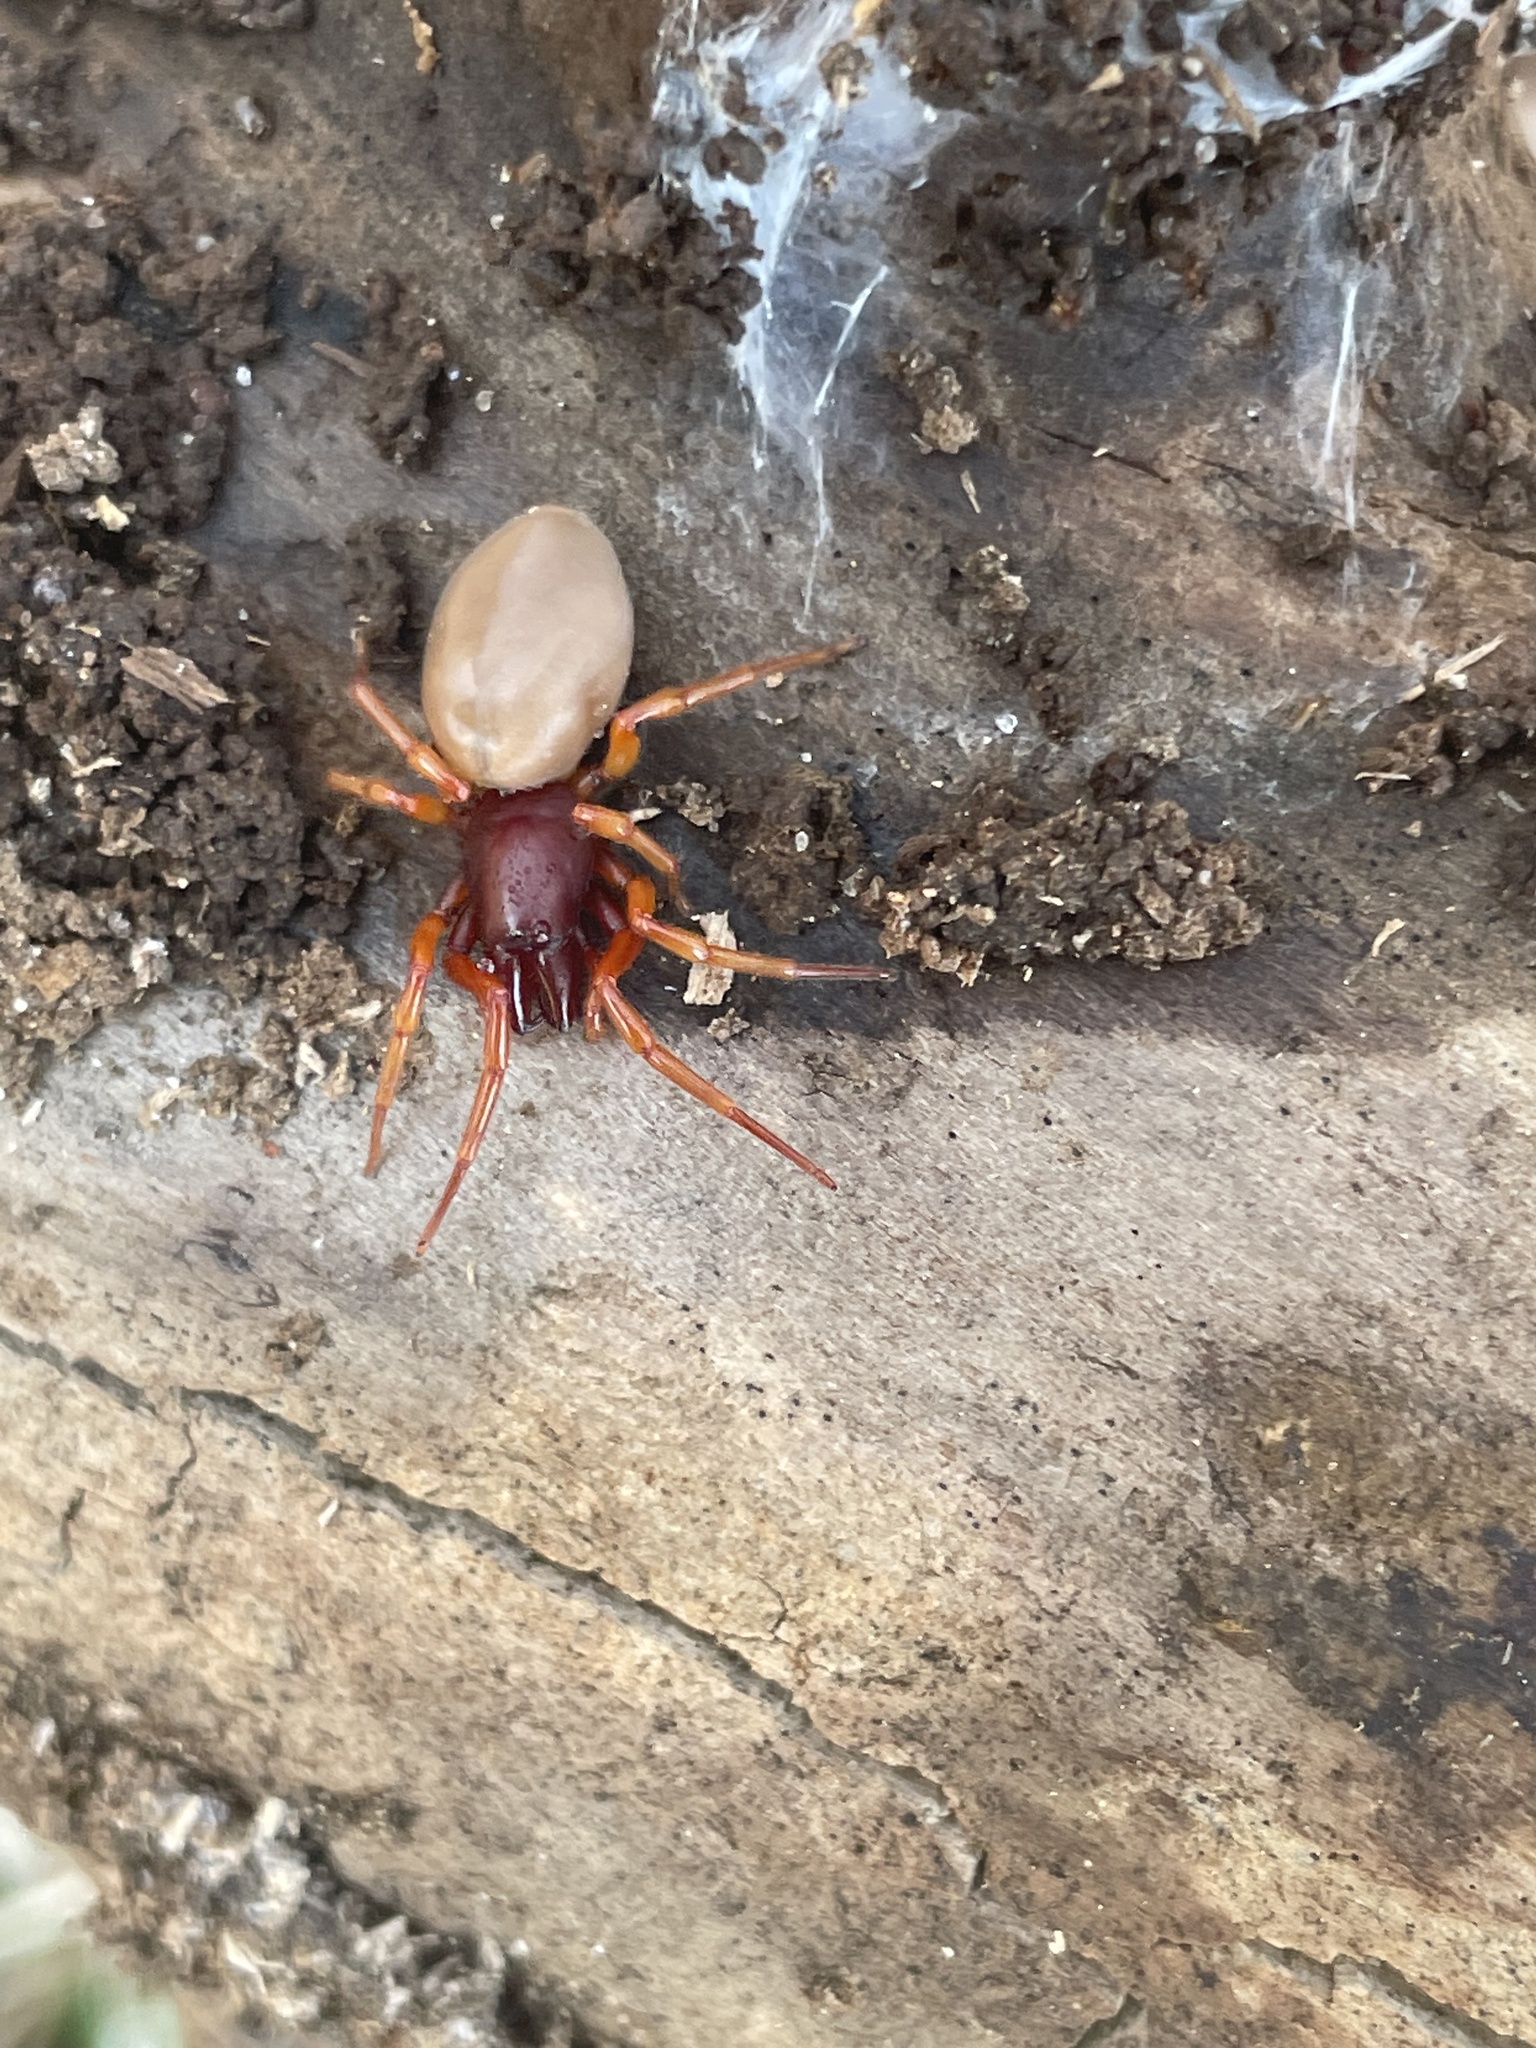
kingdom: Animalia
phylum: Arthropoda
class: Arachnida
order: Araneae
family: Dysderidae
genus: Dysdera
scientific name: Dysdera crocata
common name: Woodlouse spider
